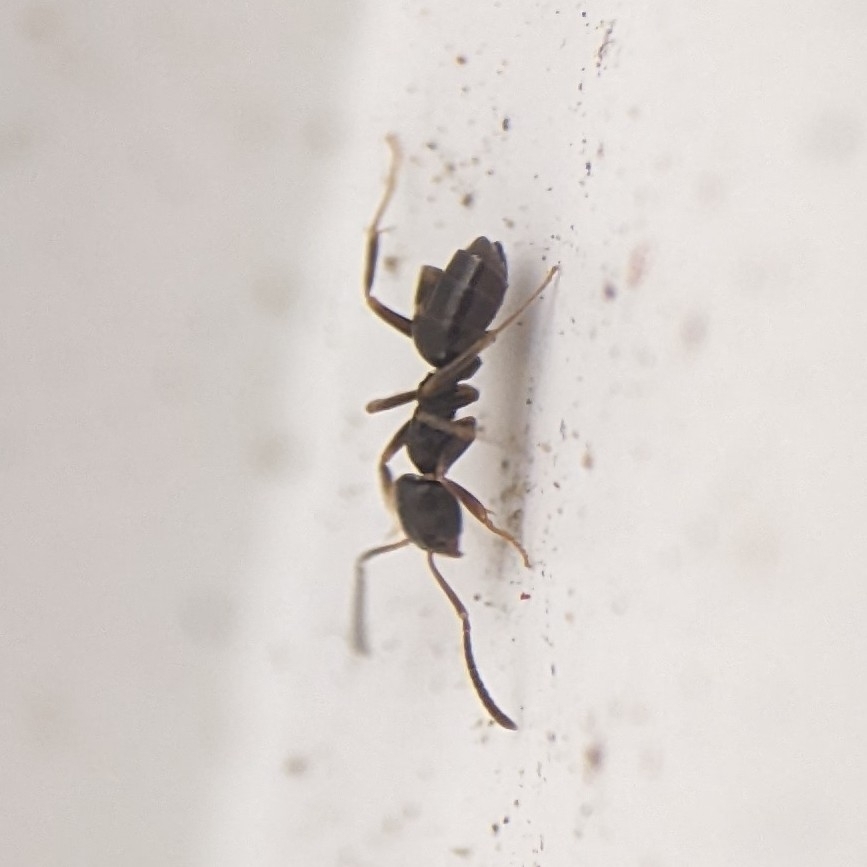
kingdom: Animalia
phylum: Arthropoda
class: Insecta
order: Hymenoptera
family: Formicidae
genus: Tapinoma
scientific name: Tapinoma sessile
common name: Odorous house ant
